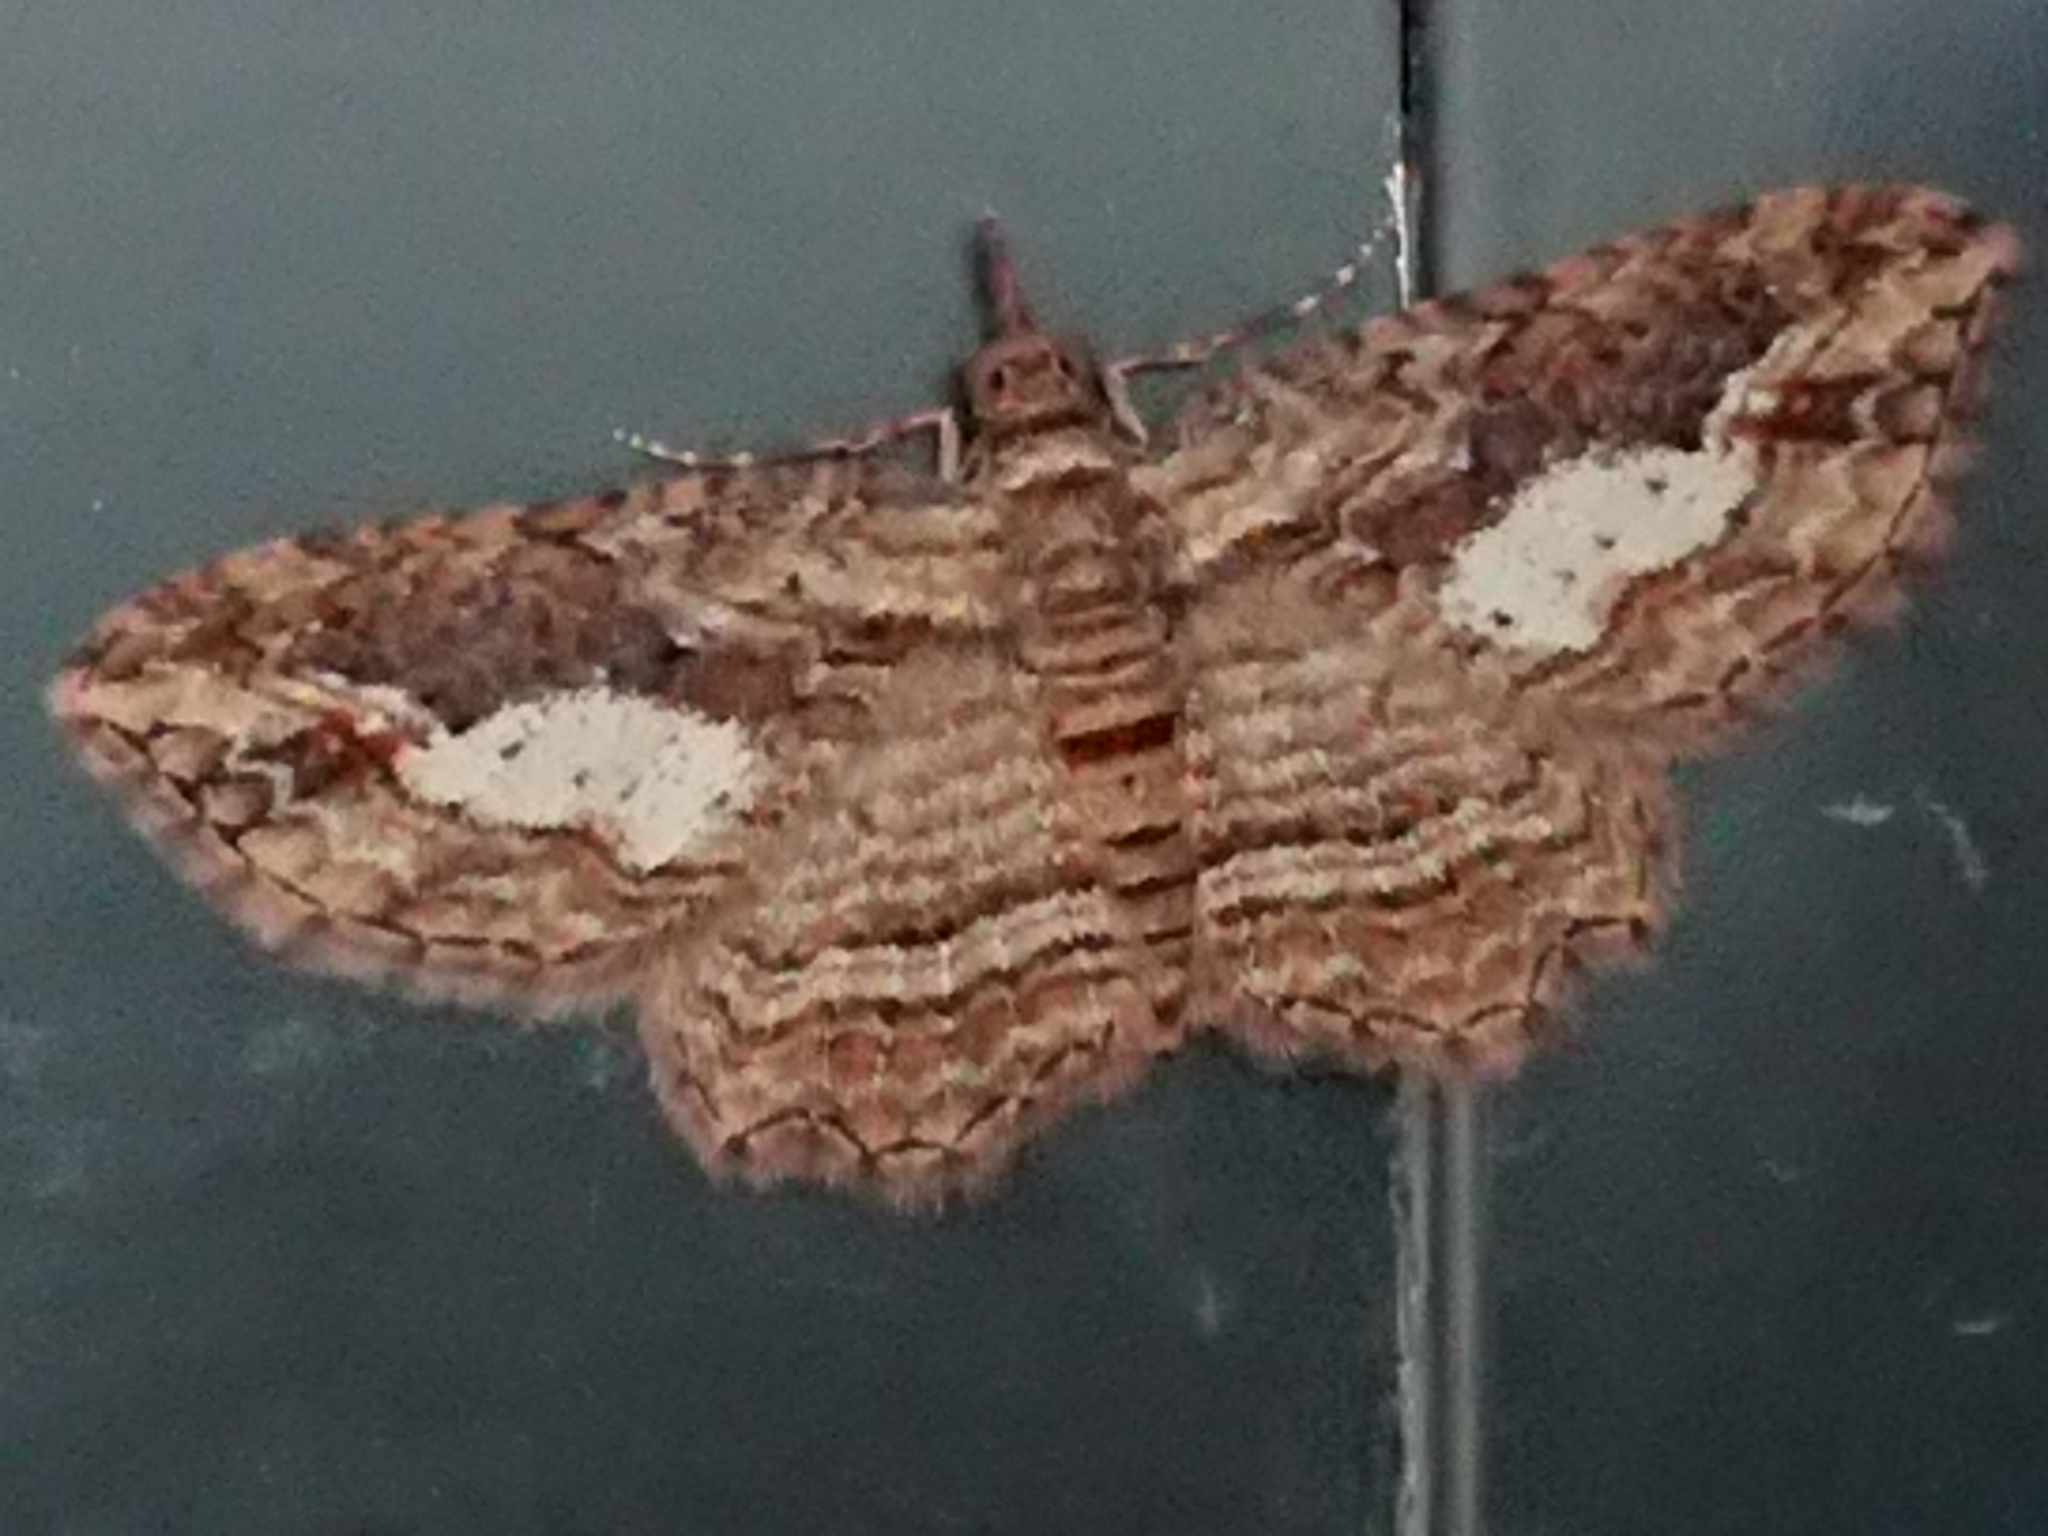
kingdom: Animalia
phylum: Arthropoda
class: Insecta
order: Lepidoptera
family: Geometridae
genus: Chloroclystis
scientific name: Chloroclystis filata
